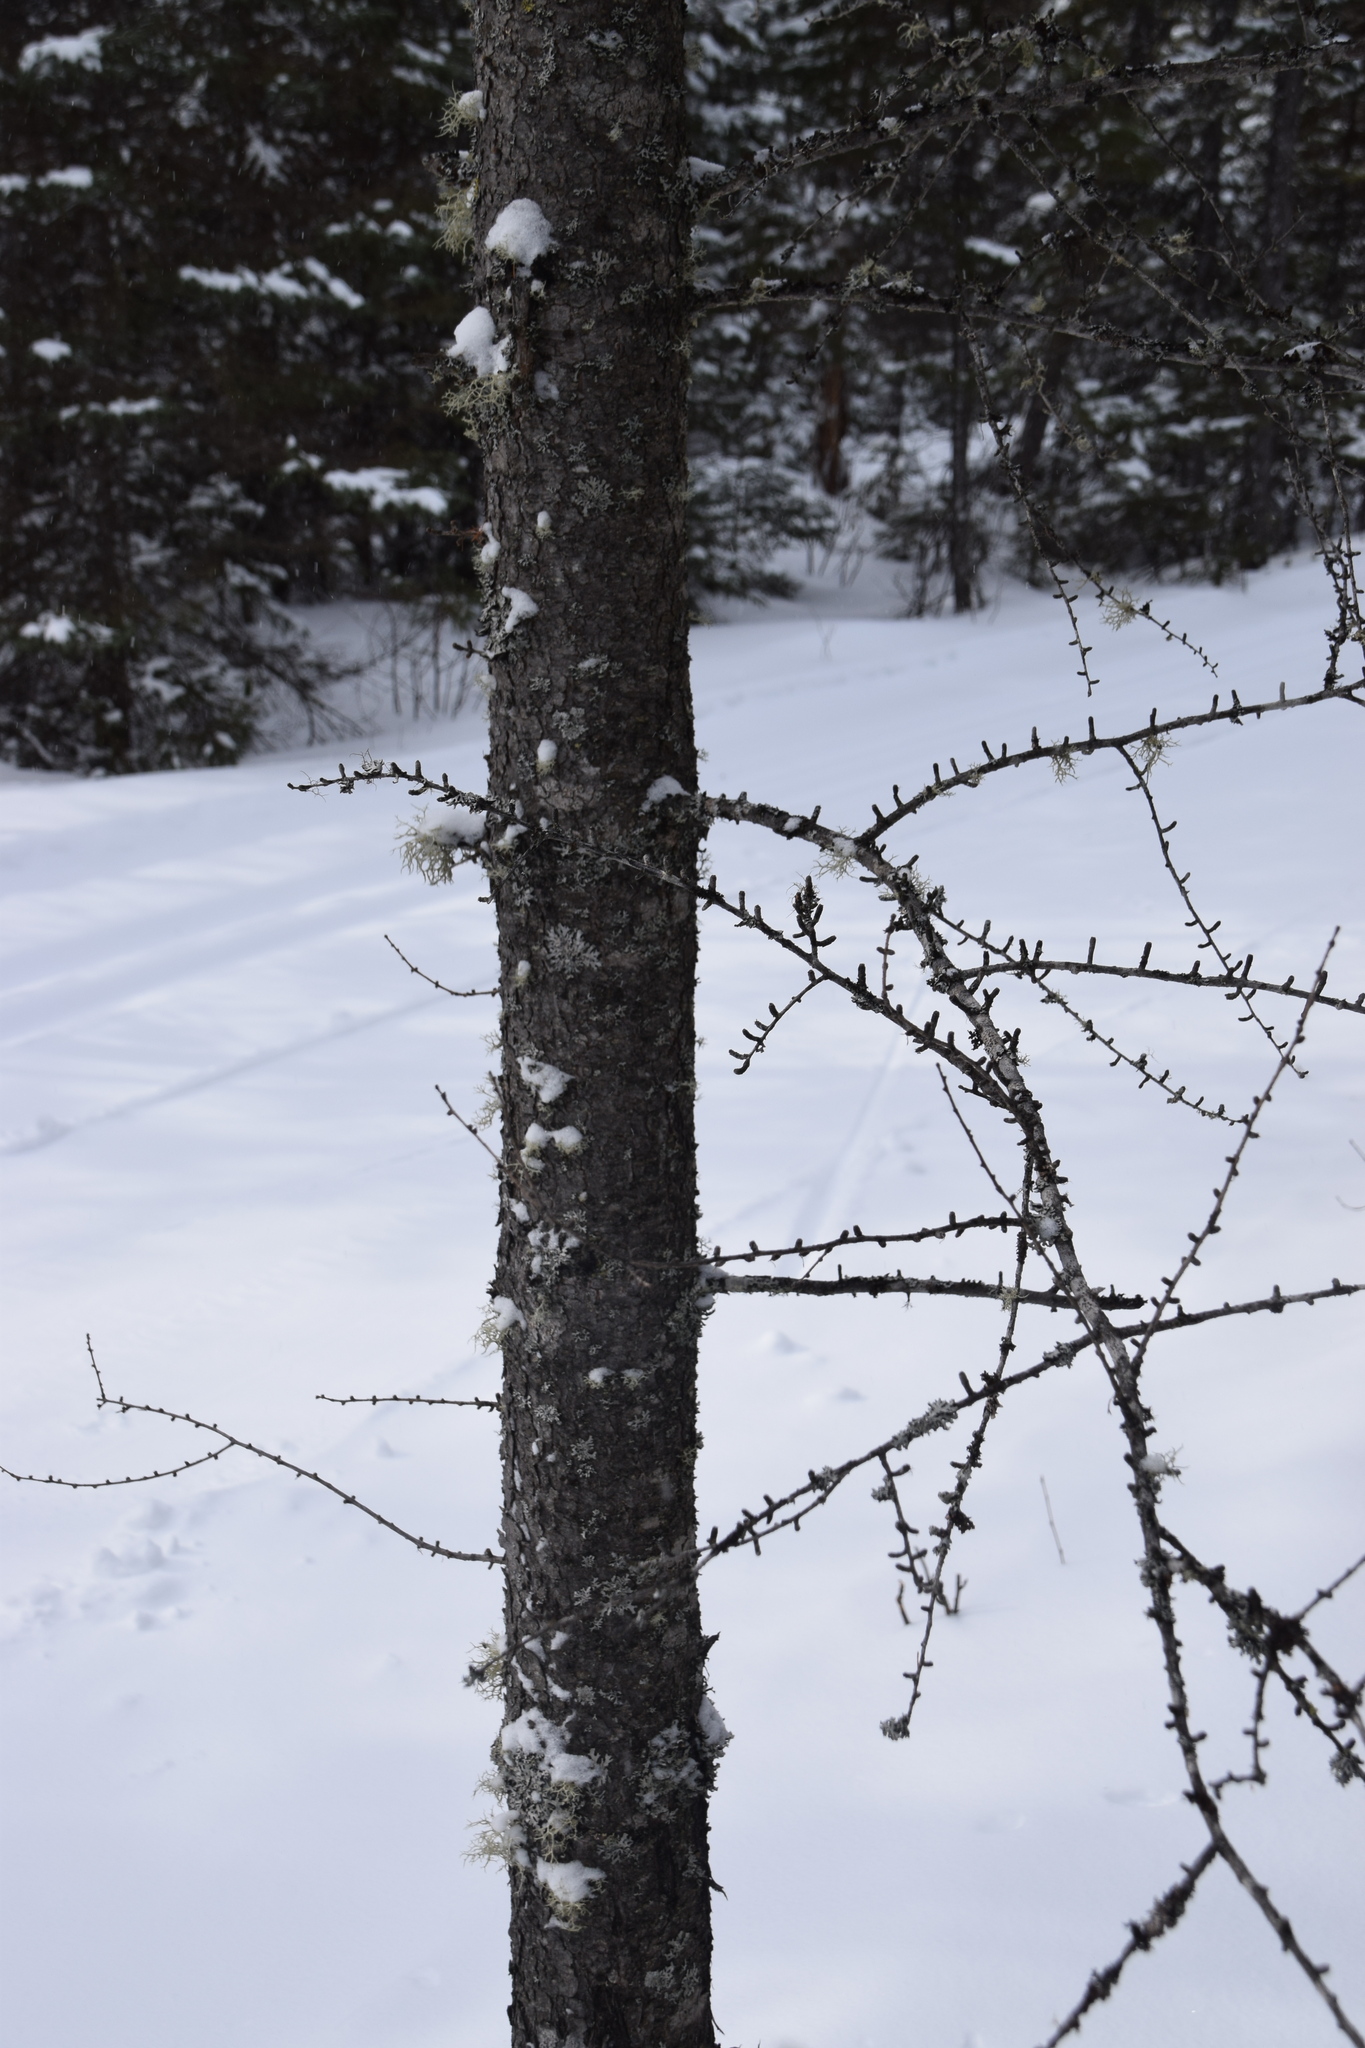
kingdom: Plantae
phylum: Tracheophyta
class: Pinopsida
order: Pinales
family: Pinaceae
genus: Larix
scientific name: Larix laricina
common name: American larch
